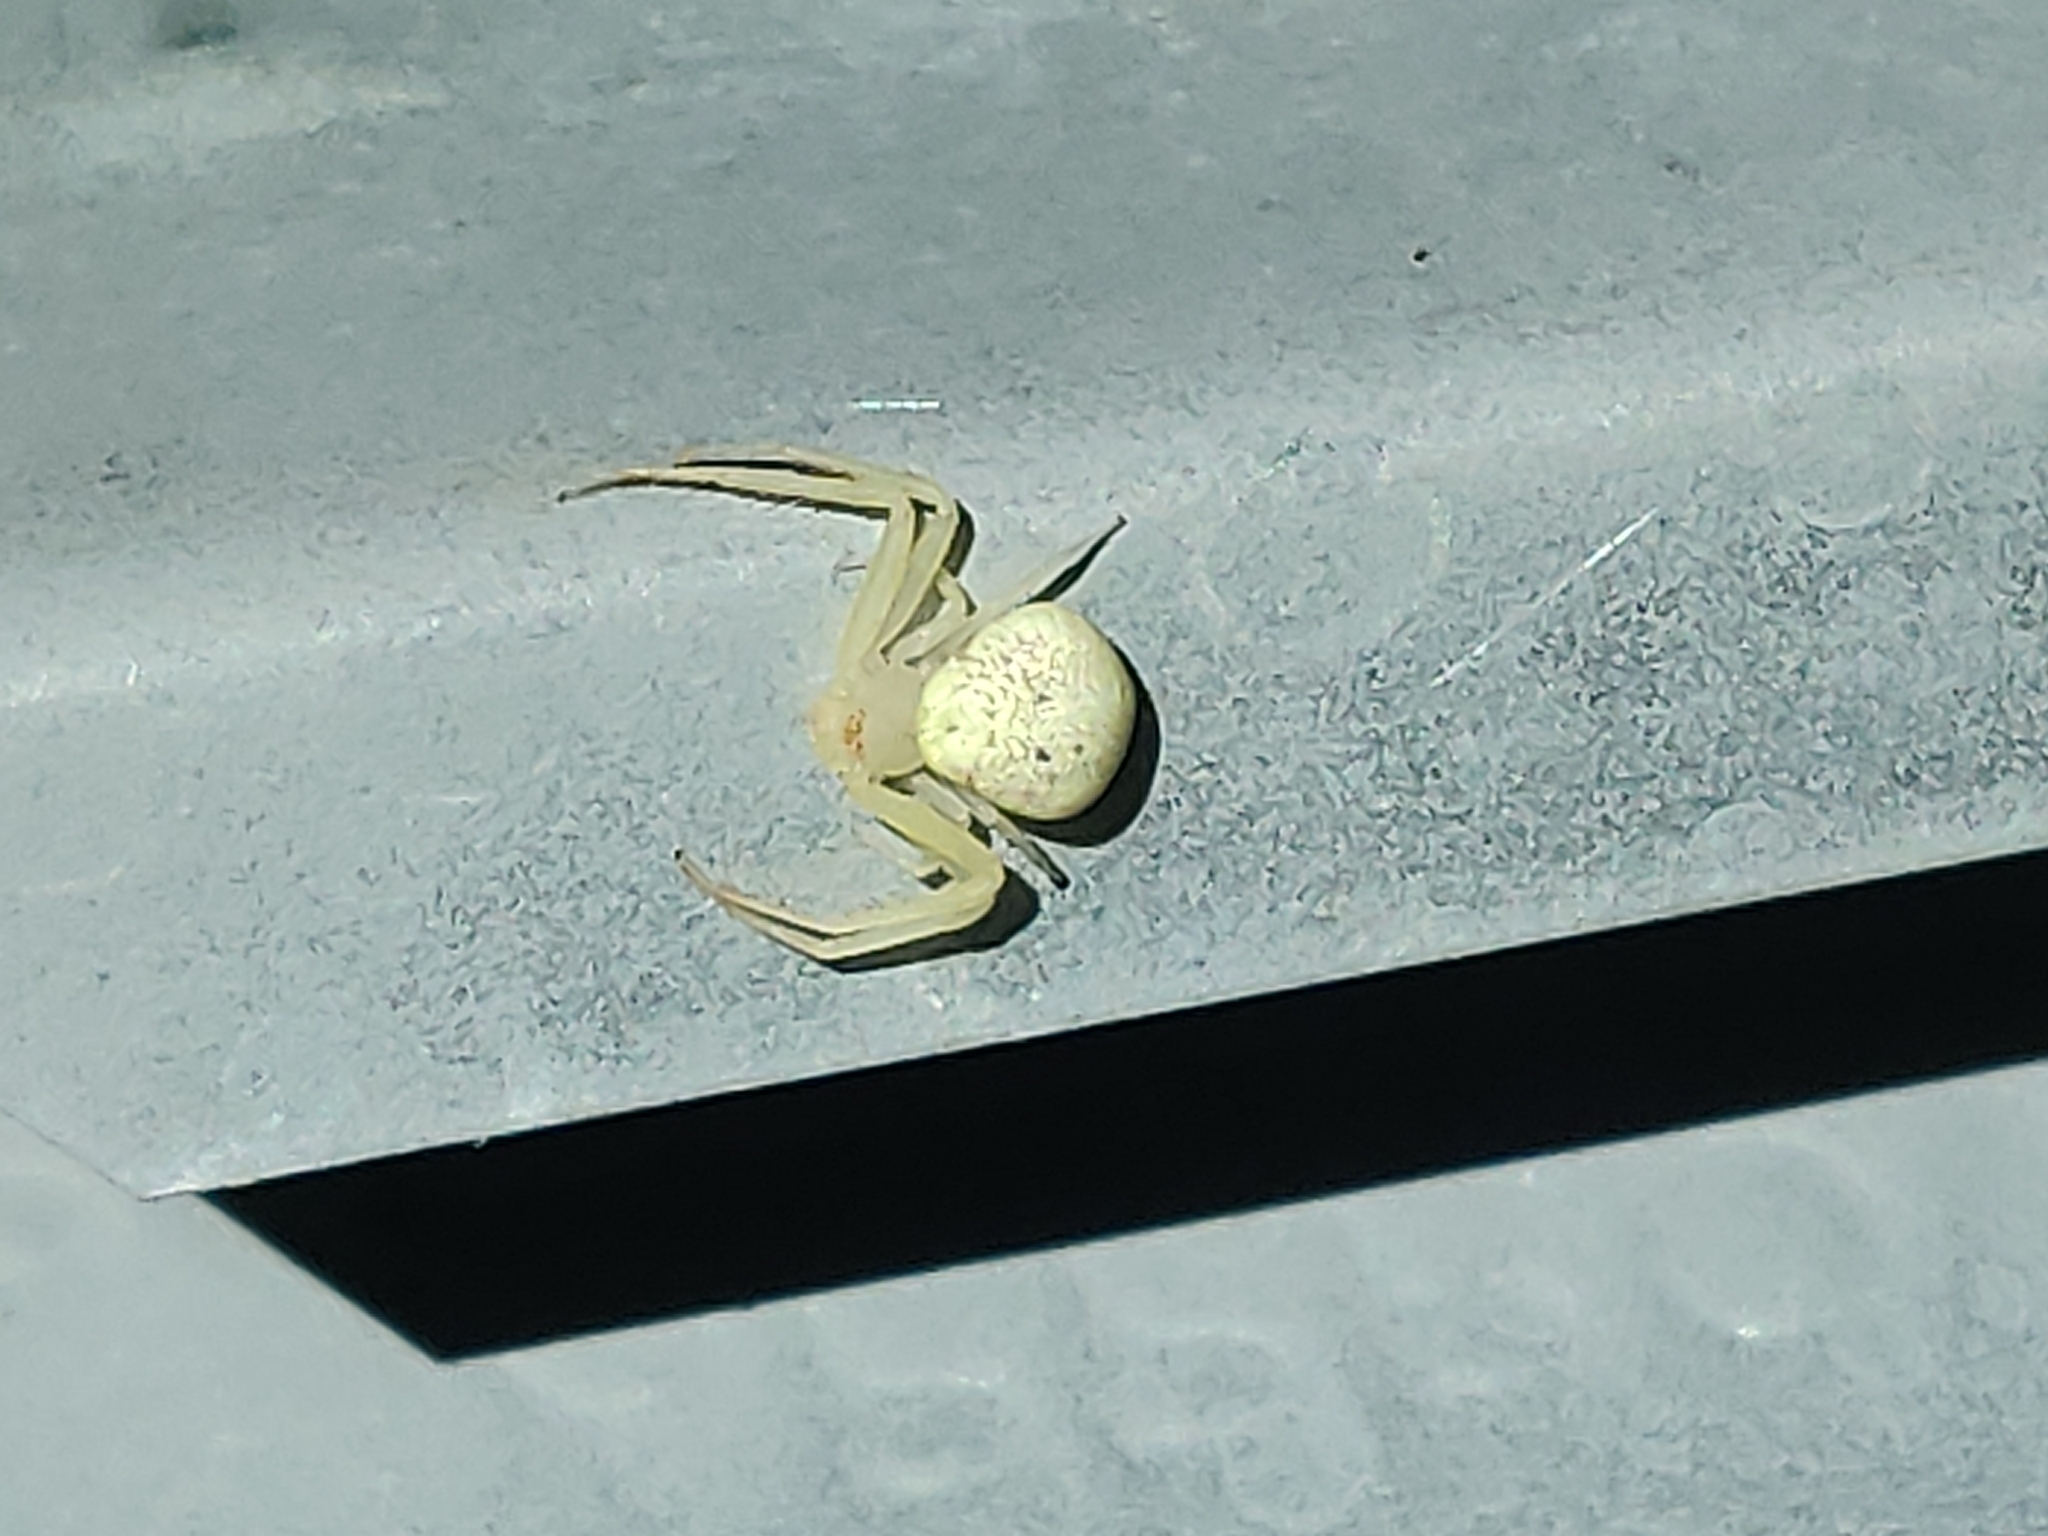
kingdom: Animalia
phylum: Arthropoda
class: Arachnida
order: Araneae
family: Thomisidae
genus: Misumessus
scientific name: Misumessus oblongus
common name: American green crab spider
